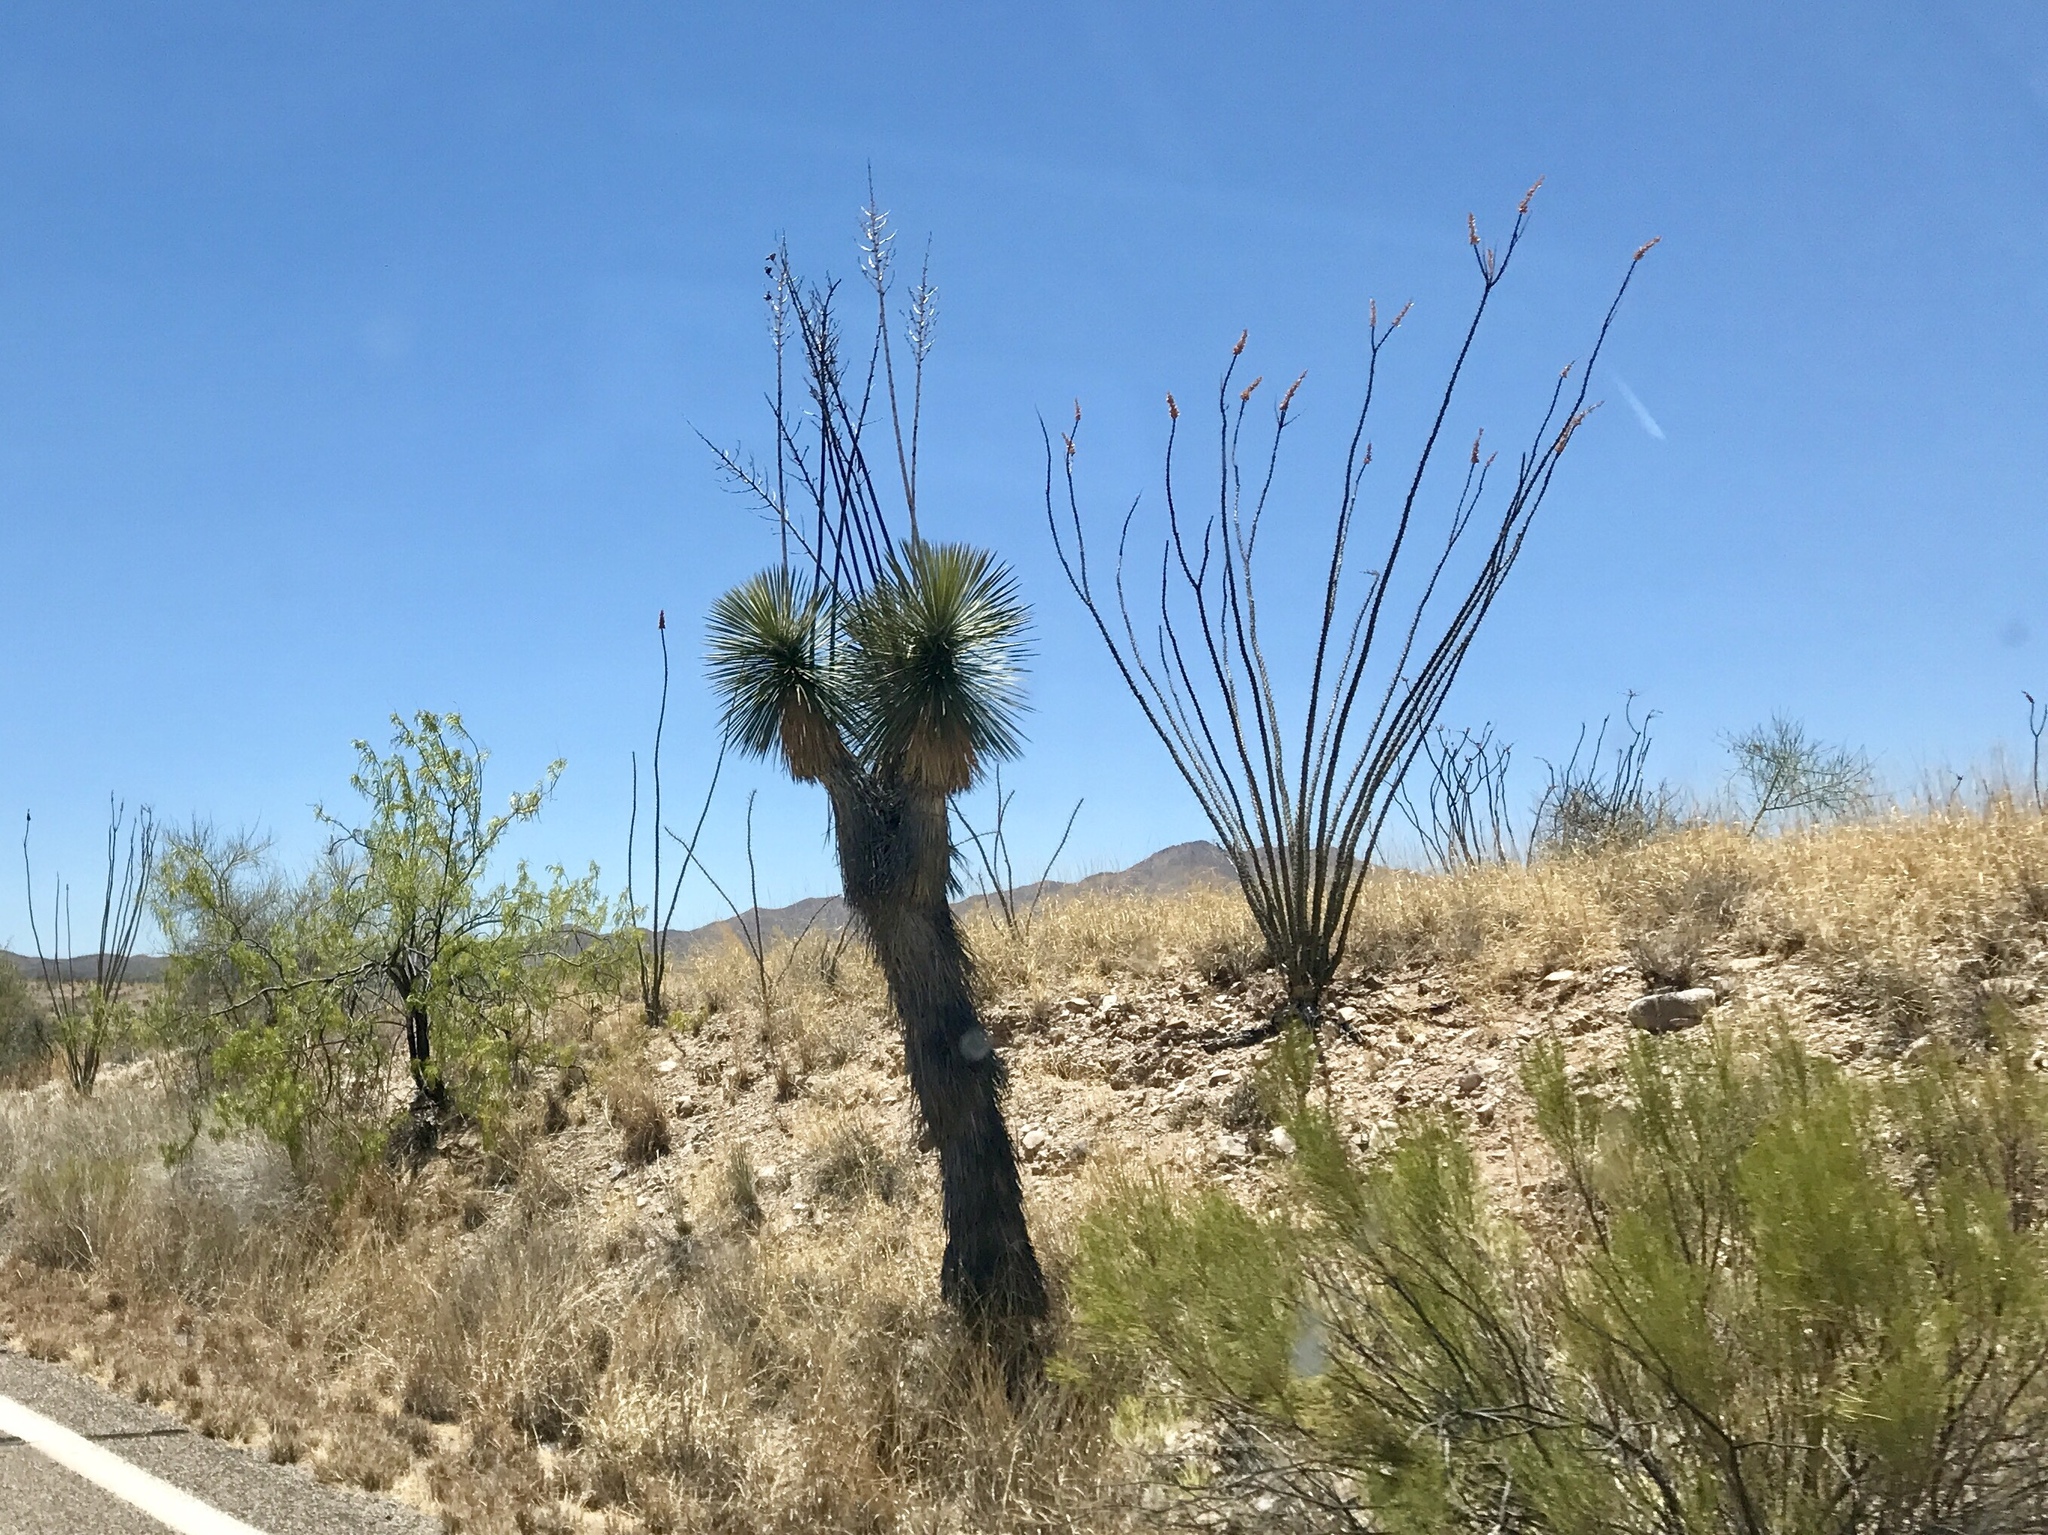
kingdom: Plantae
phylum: Tracheophyta
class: Liliopsida
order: Asparagales
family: Asparagaceae
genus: Yucca
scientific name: Yucca elata
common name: Palmella
